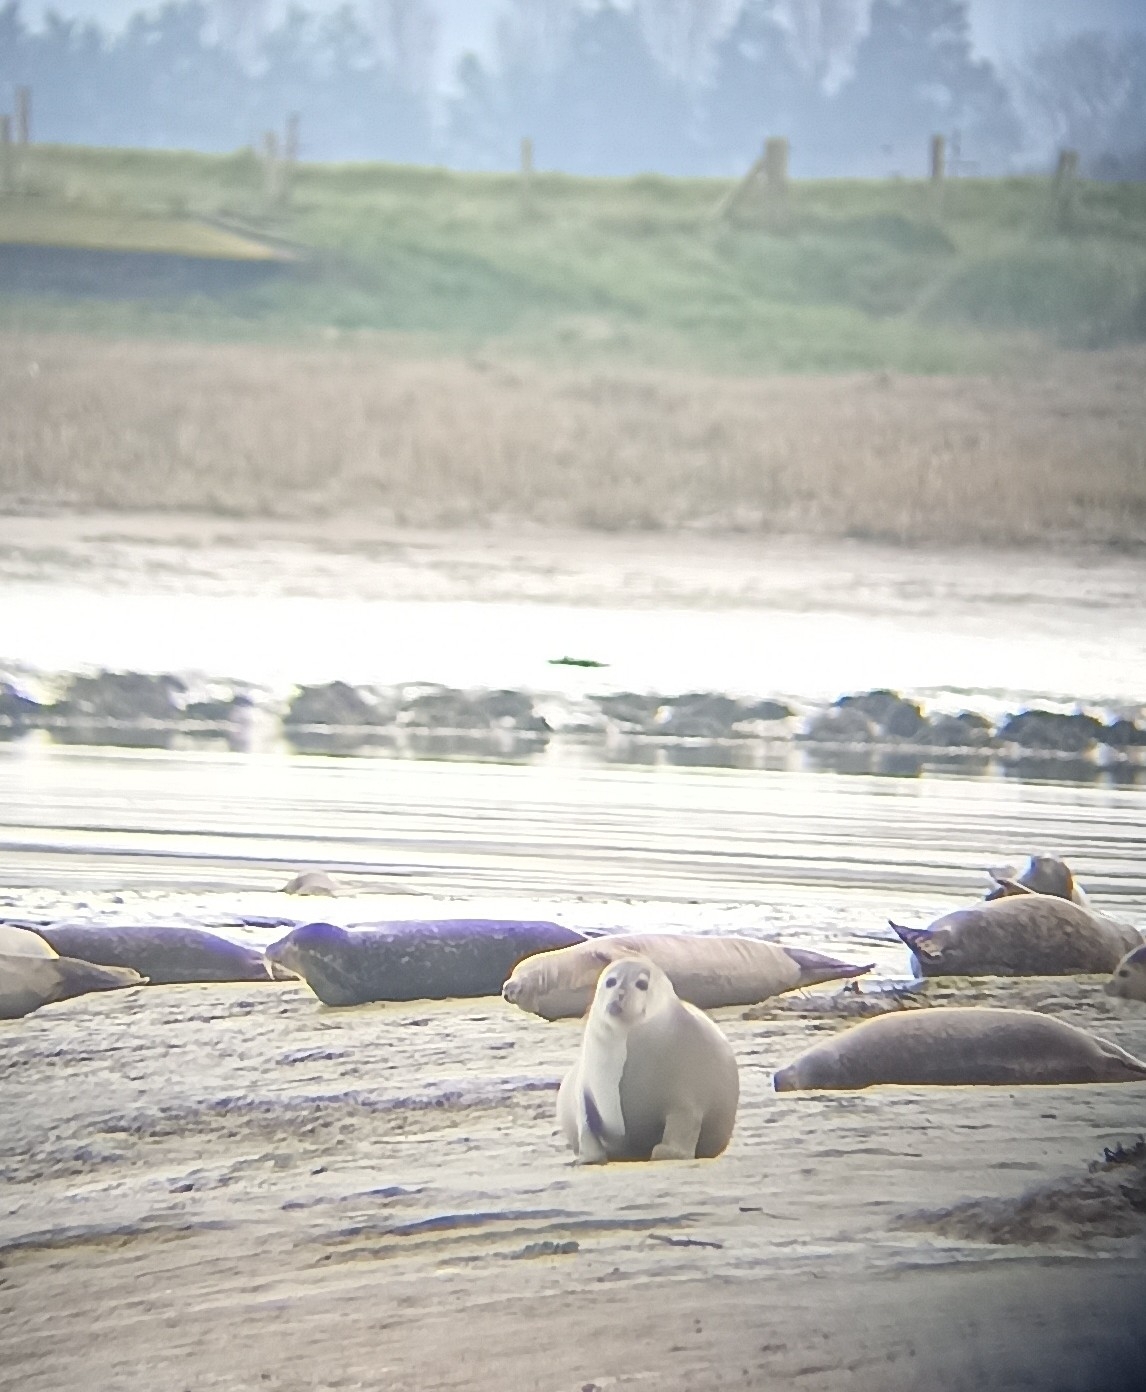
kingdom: Animalia
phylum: Chordata
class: Mammalia
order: Carnivora
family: Phocidae
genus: Phoca
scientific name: Phoca vitulina
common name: Harbor seal
